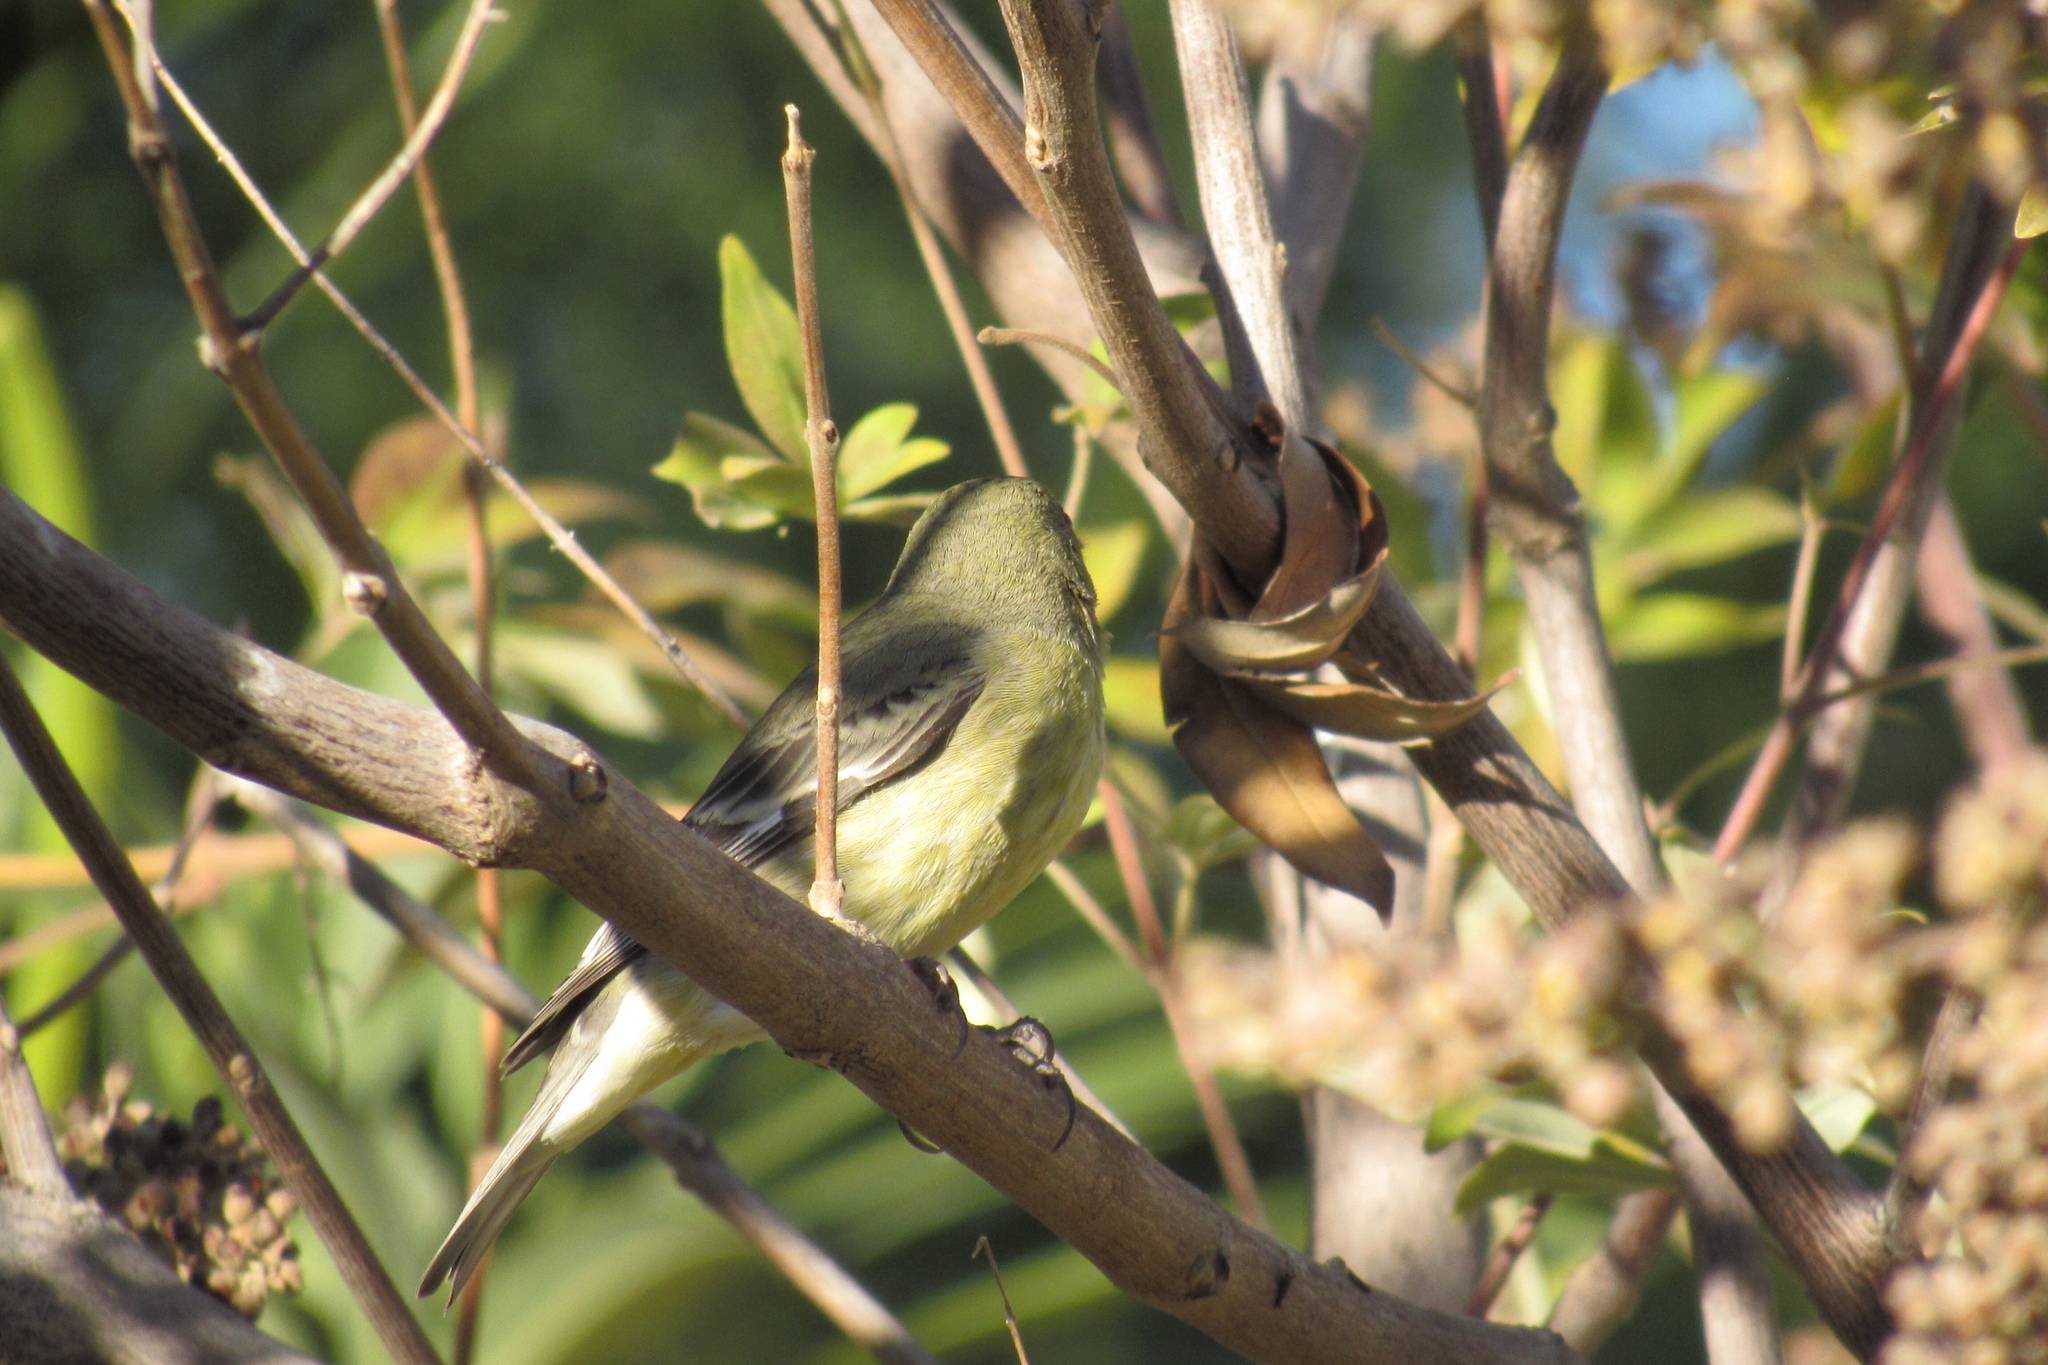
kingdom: Animalia
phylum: Chordata
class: Aves
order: Passeriformes
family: Fringillidae
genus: Spinus
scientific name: Spinus psaltria
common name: Lesser goldfinch
